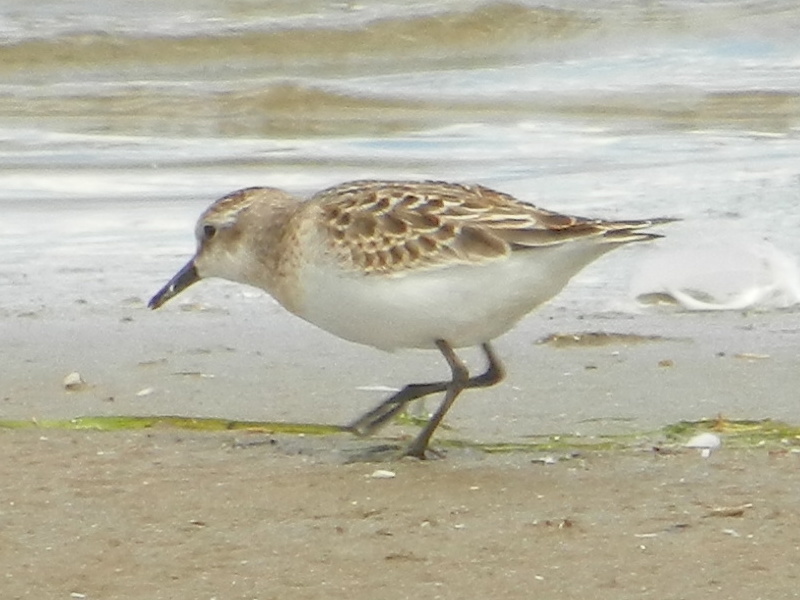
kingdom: Animalia
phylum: Chordata
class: Aves
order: Charadriiformes
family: Scolopacidae
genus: Calidris
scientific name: Calidris pusilla
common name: Semipalmated sandpiper
